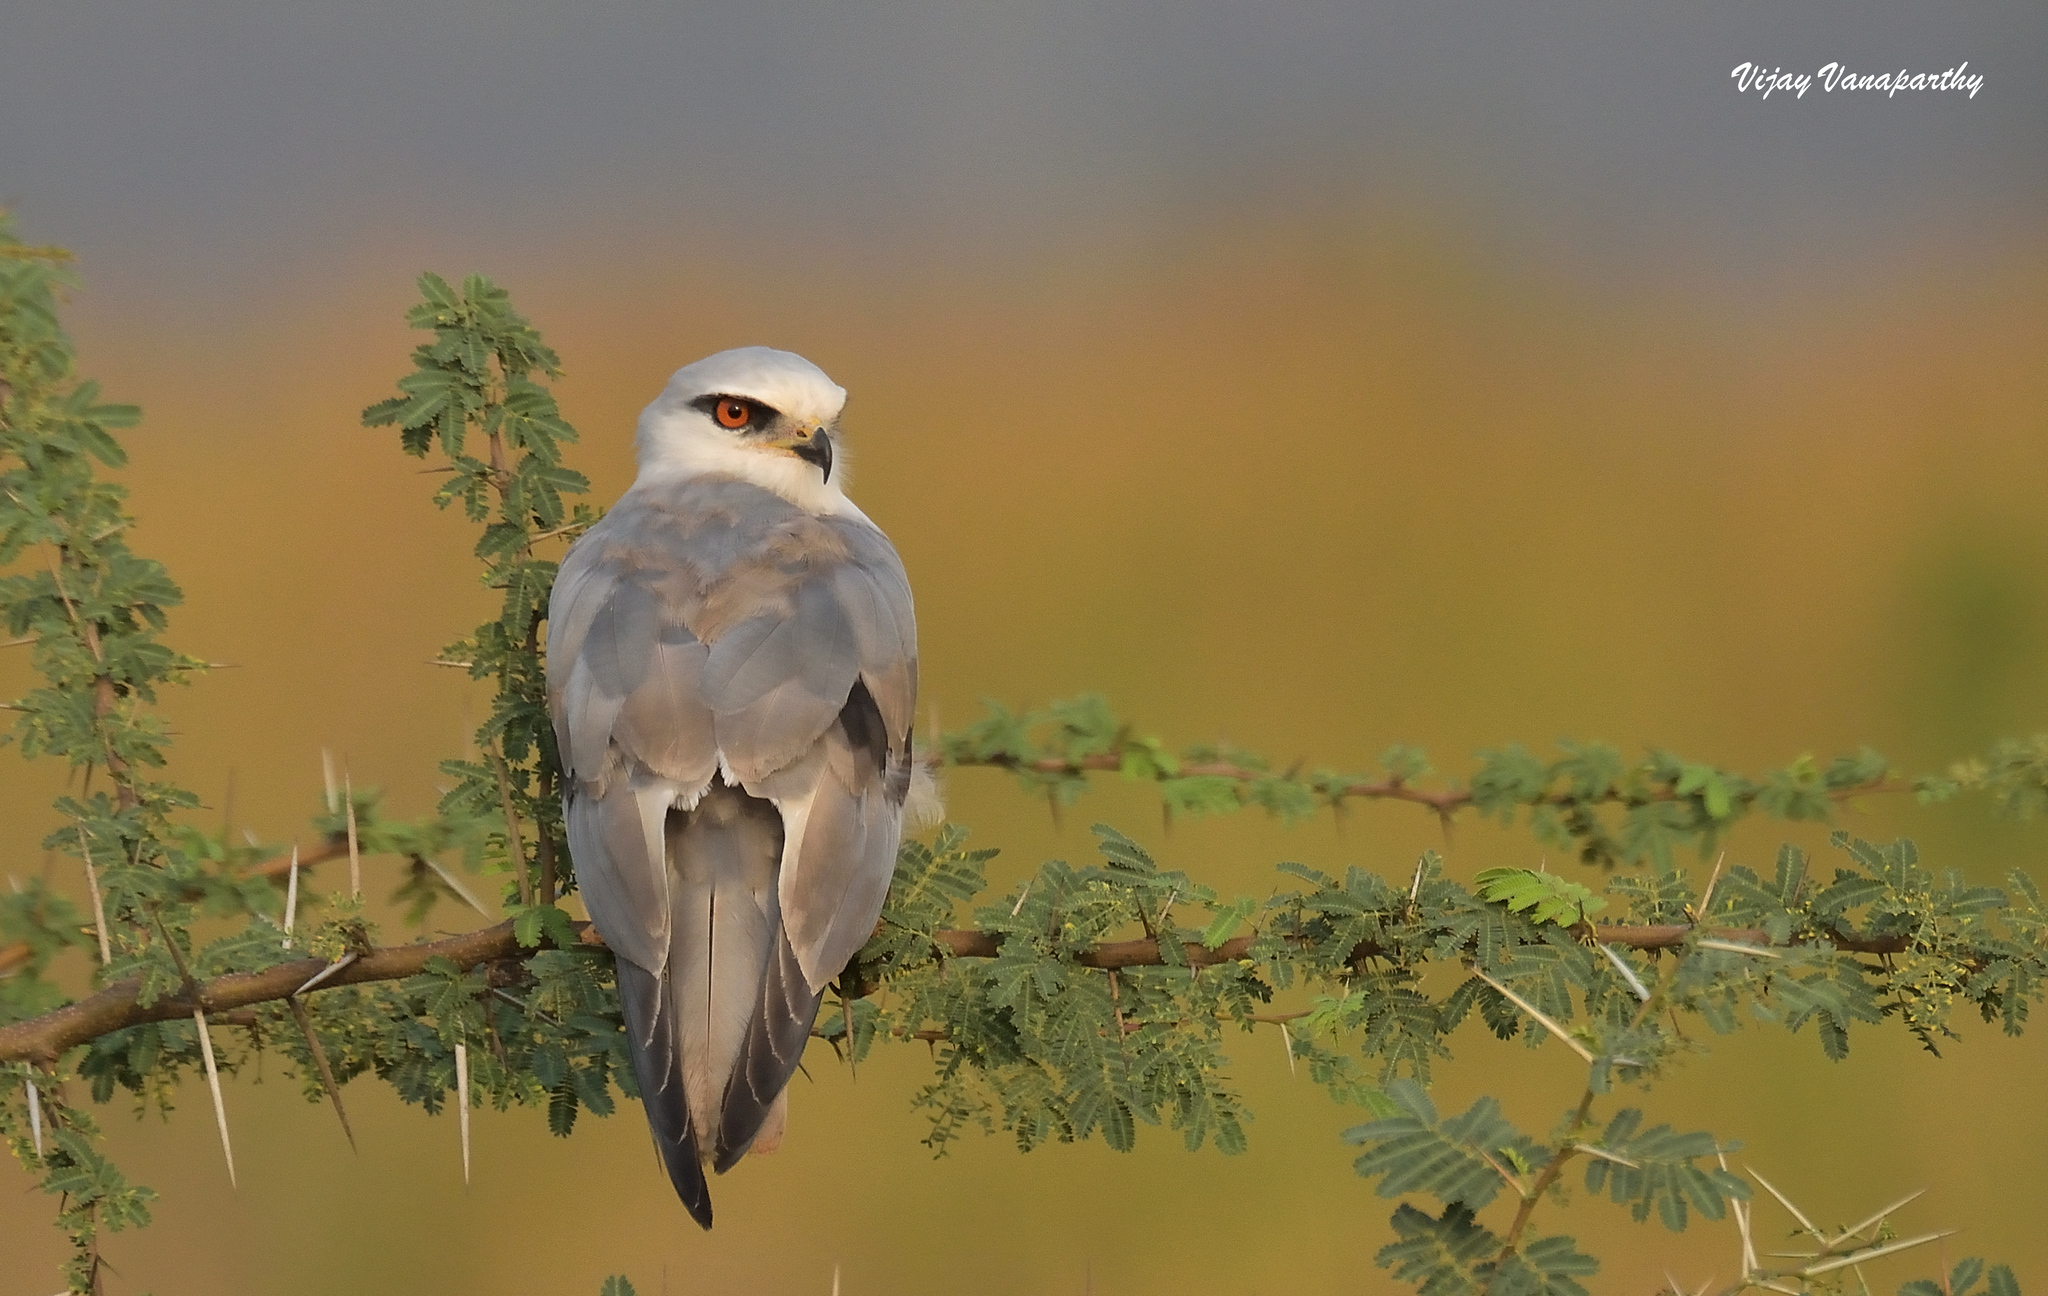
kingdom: Animalia
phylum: Chordata
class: Aves
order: Accipitriformes
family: Accipitridae
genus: Elanus
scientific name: Elanus caeruleus
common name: Black-winged kite
